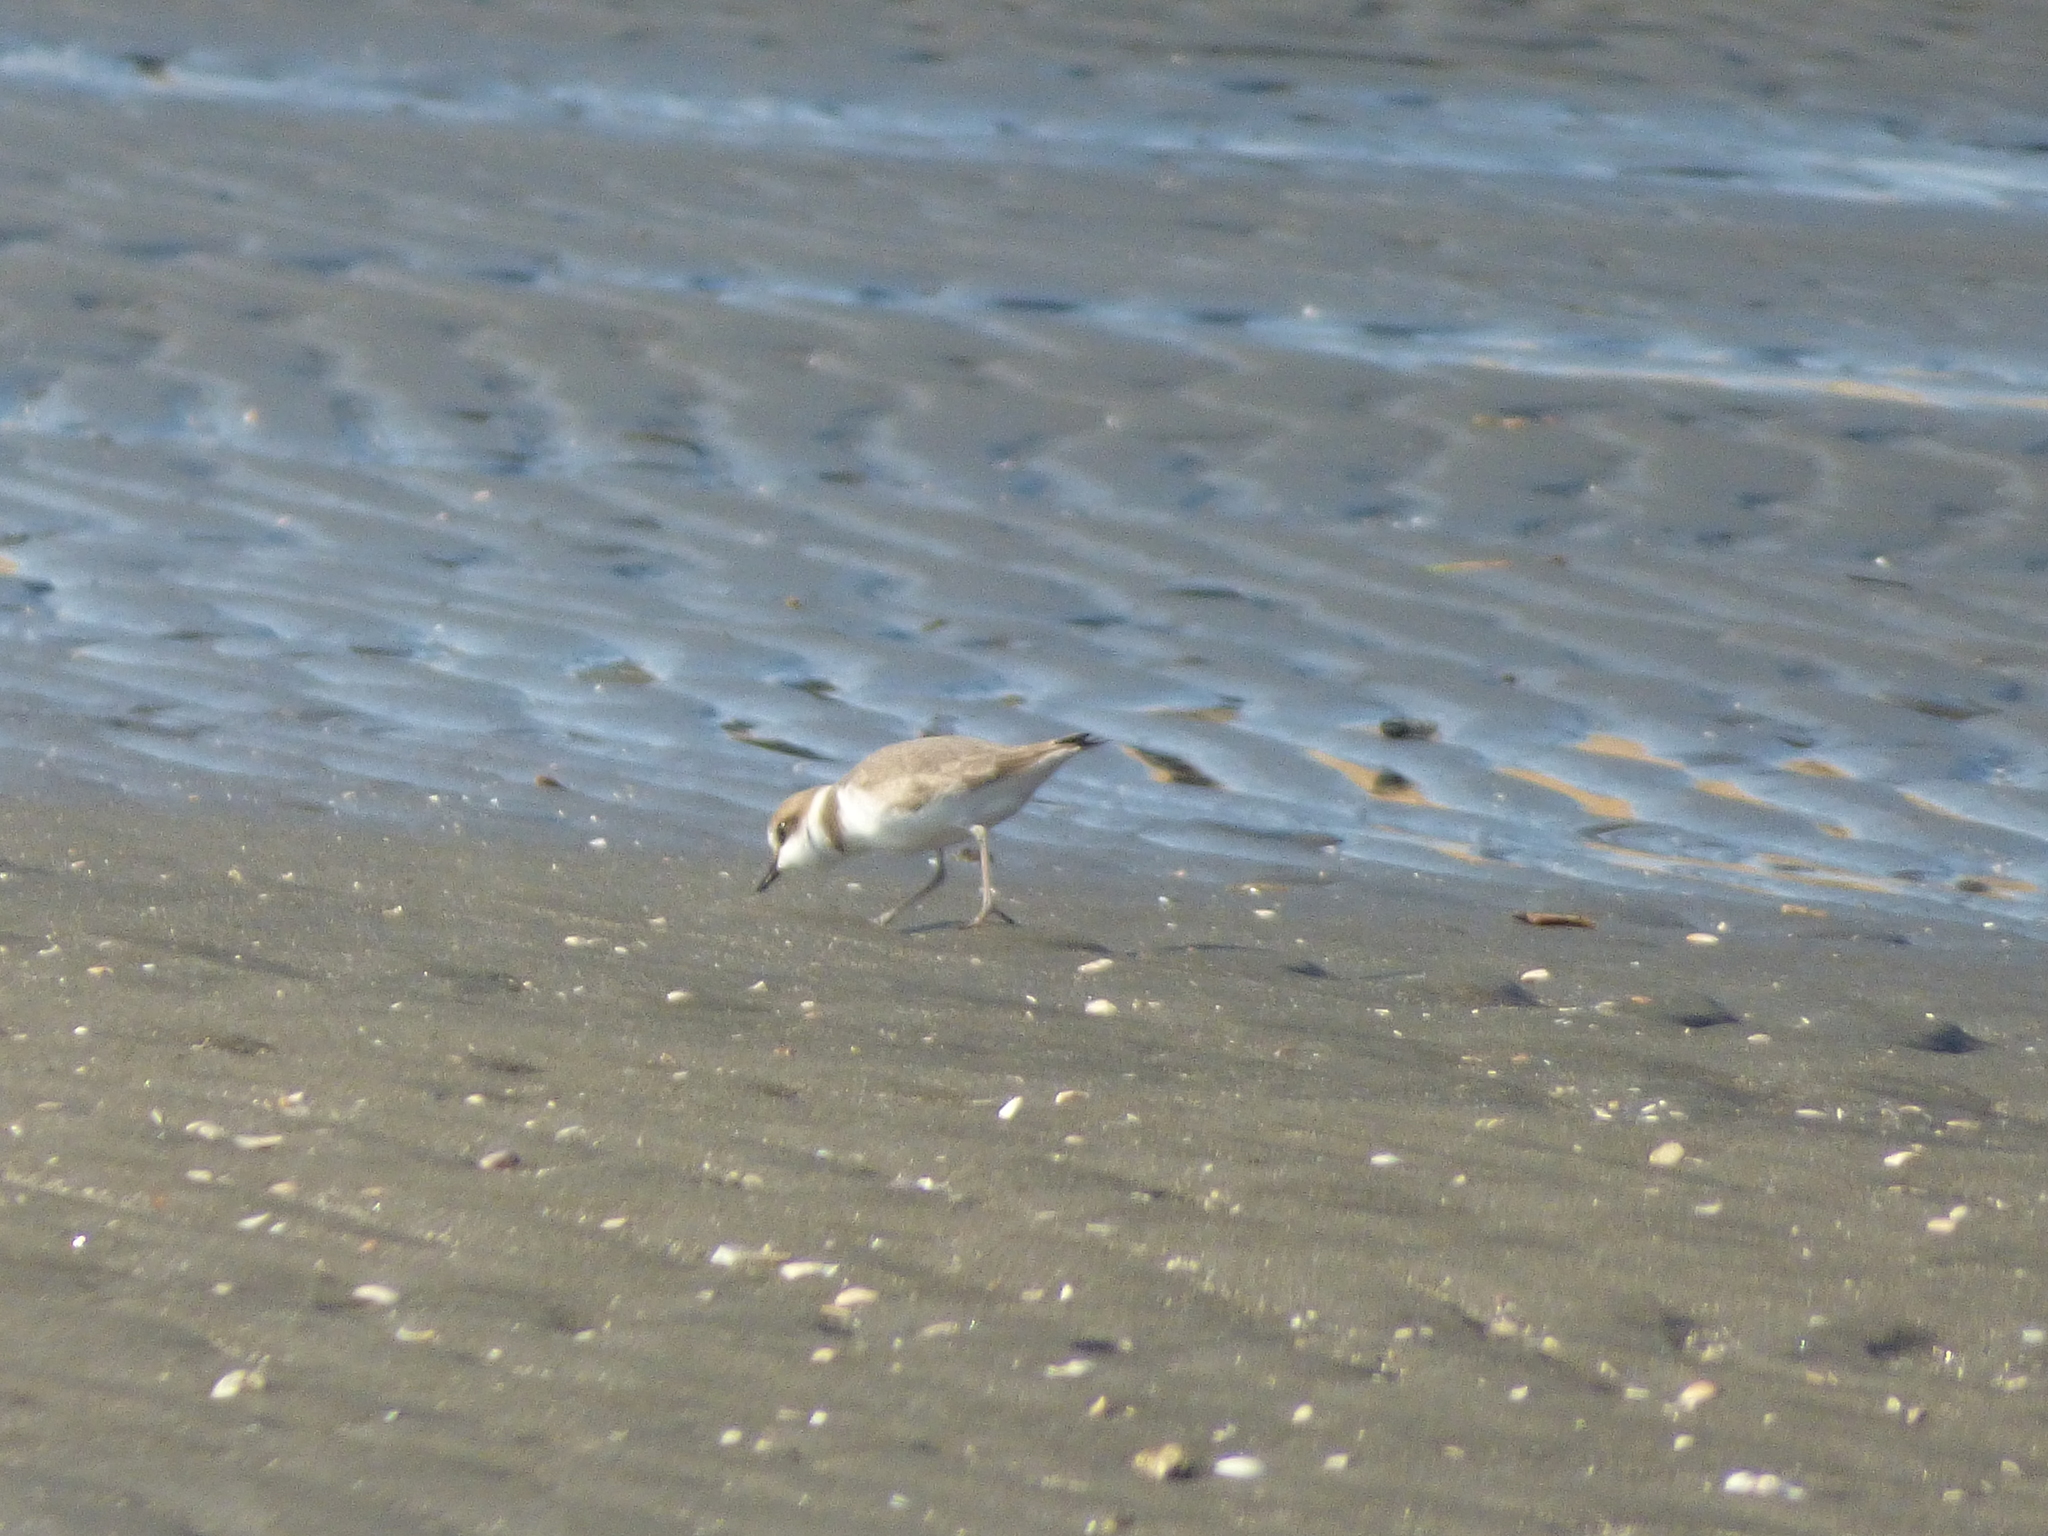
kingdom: Animalia
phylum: Chordata
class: Aves
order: Charadriiformes
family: Charadriidae
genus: Charadrius
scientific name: Charadrius alexandrinus
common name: Kentish plover
